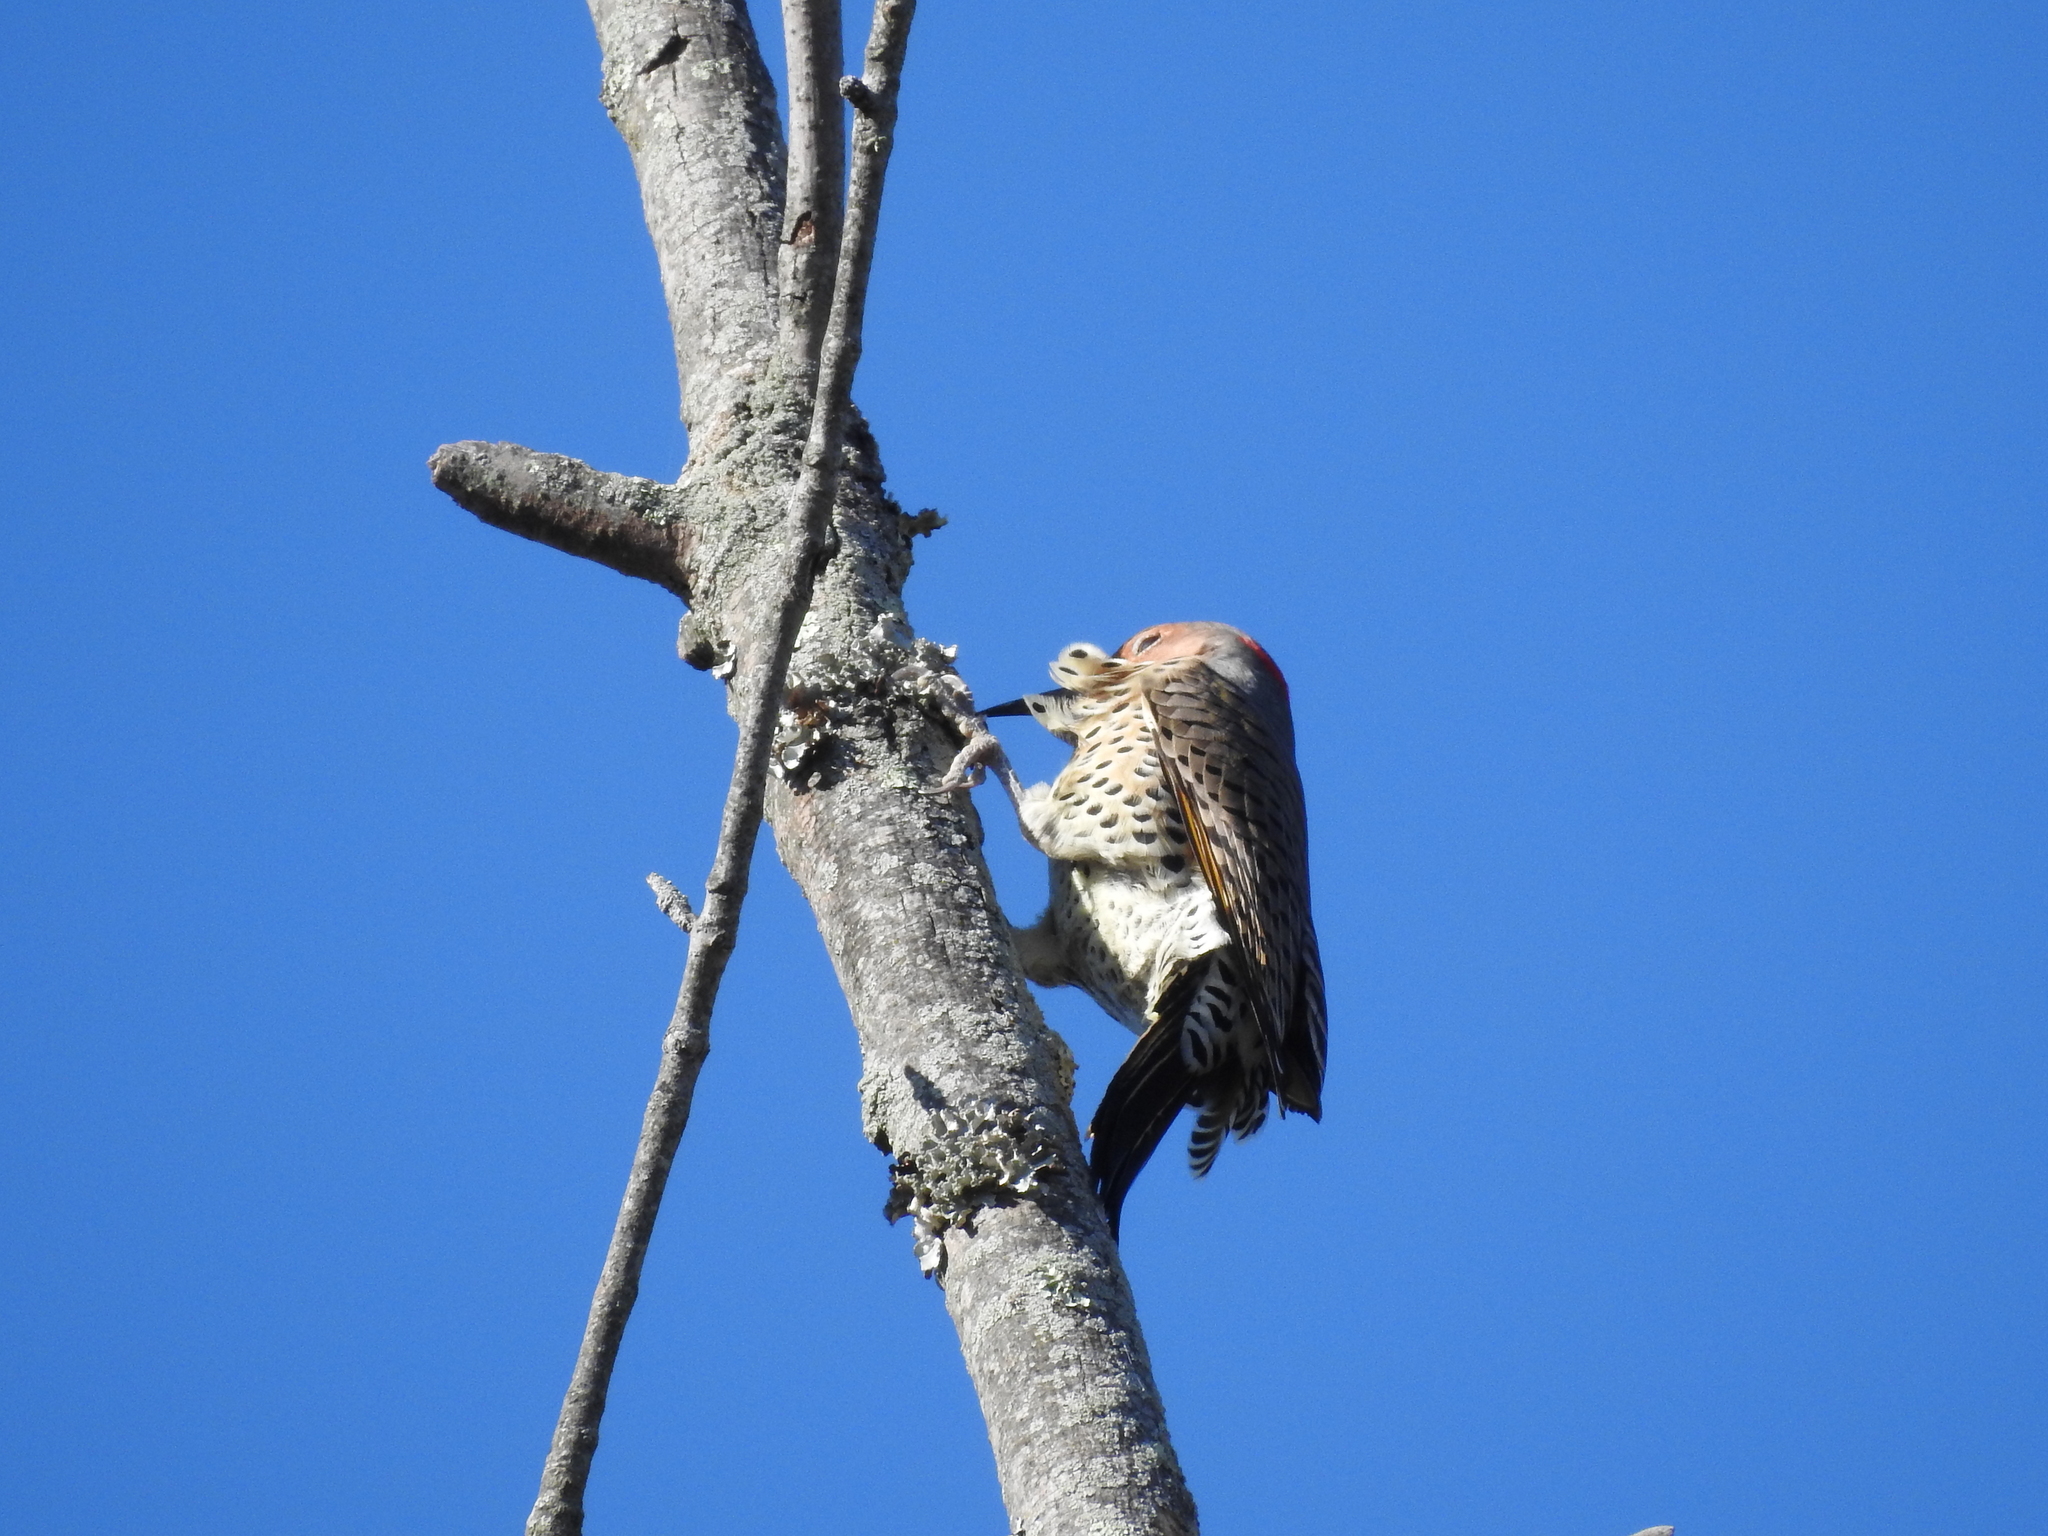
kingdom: Animalia
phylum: Chordata
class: Aves
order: Piciformes
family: Picidae
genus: Colaptes
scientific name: Colaptes auratus
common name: Northern flicker
